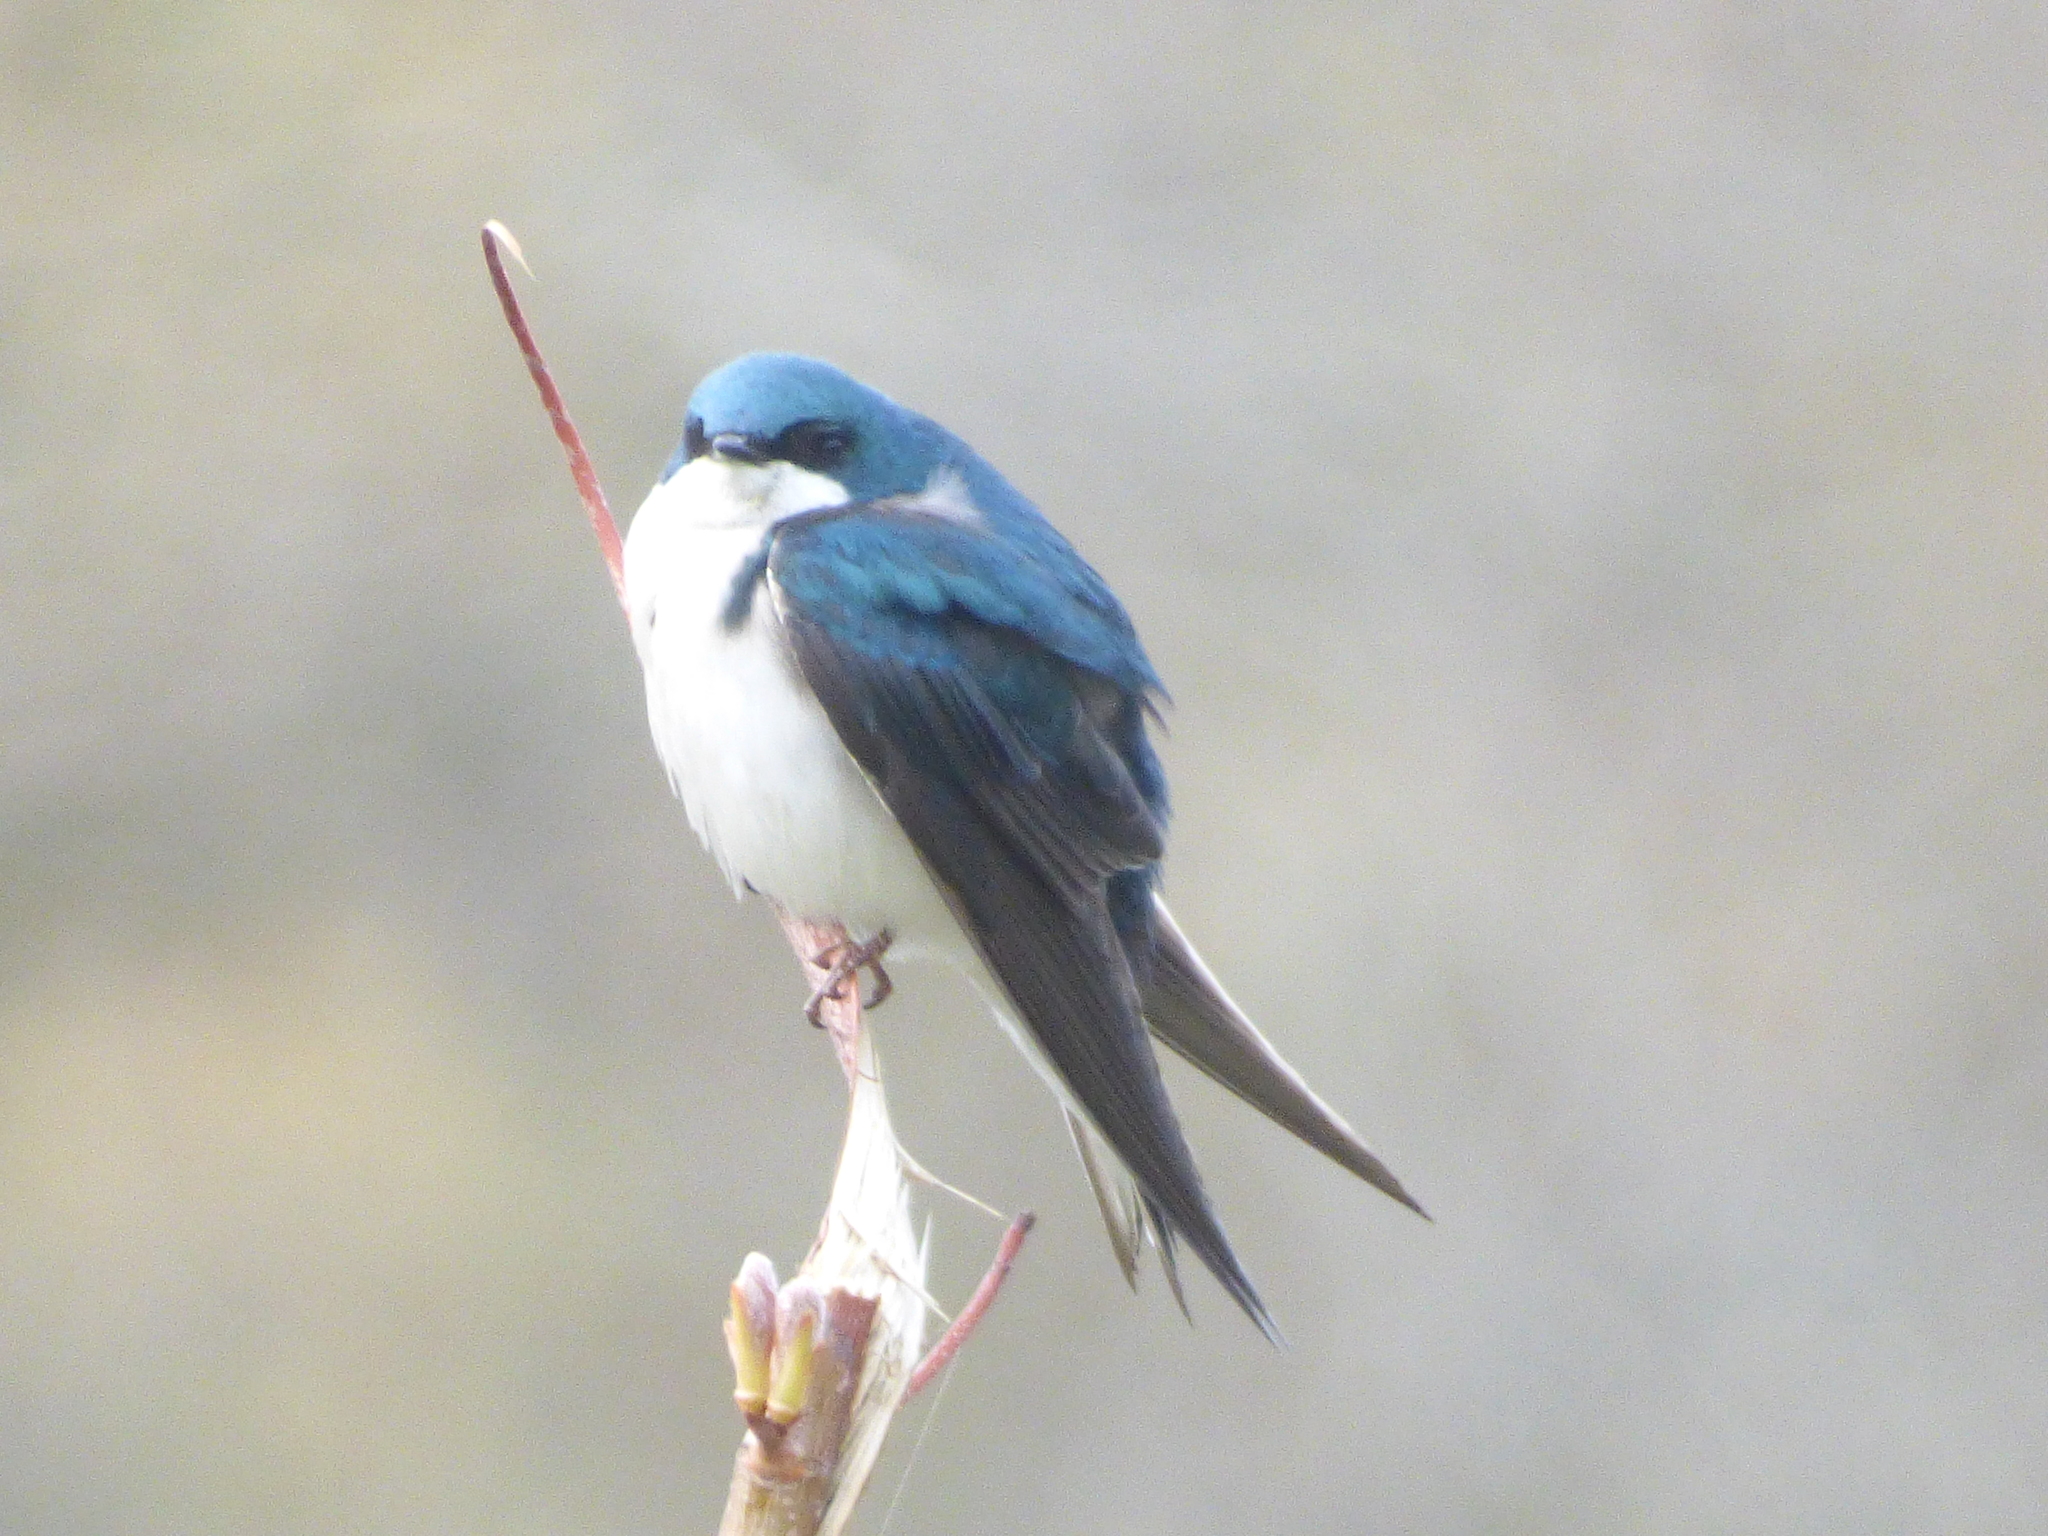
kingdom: Animalia
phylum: Chordata
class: Aves
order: Passeriformes
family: Hirundinidae
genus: Tachycineta
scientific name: Tachycineta bicolor
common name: Tree swallow
